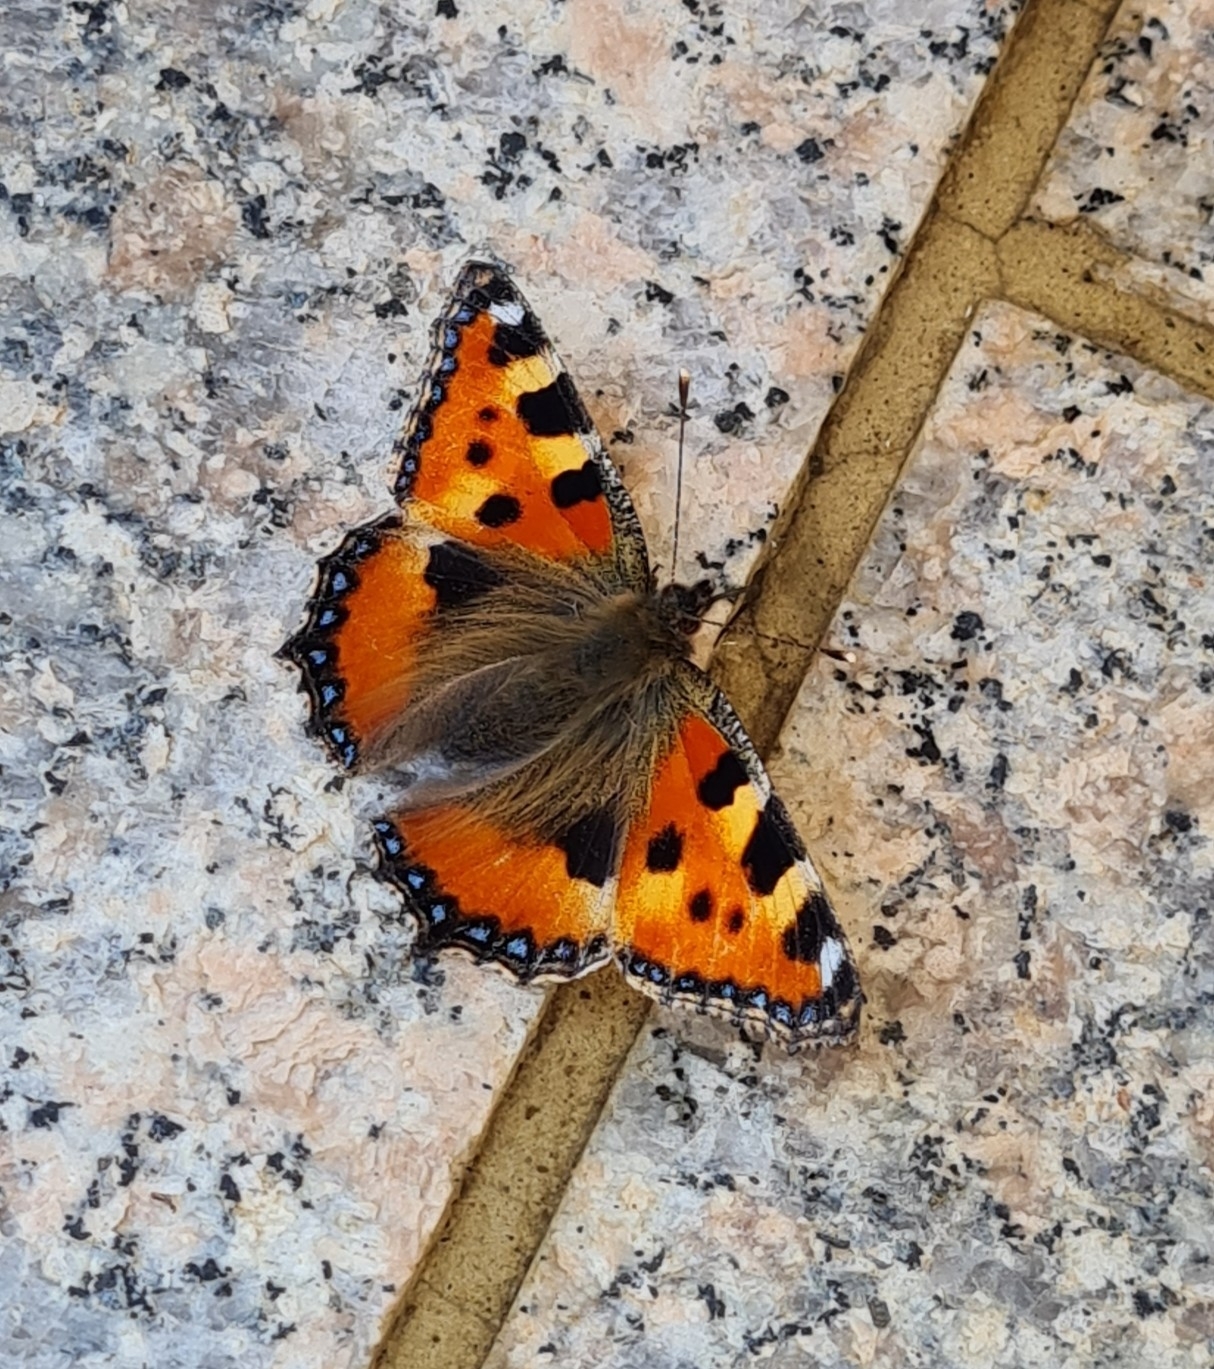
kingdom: Animalia
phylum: Arthropoda
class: Insecta
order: Lepidoptera
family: Nymphalidae
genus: Aglais
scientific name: Aglais urticae
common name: Small tortoiseshell
